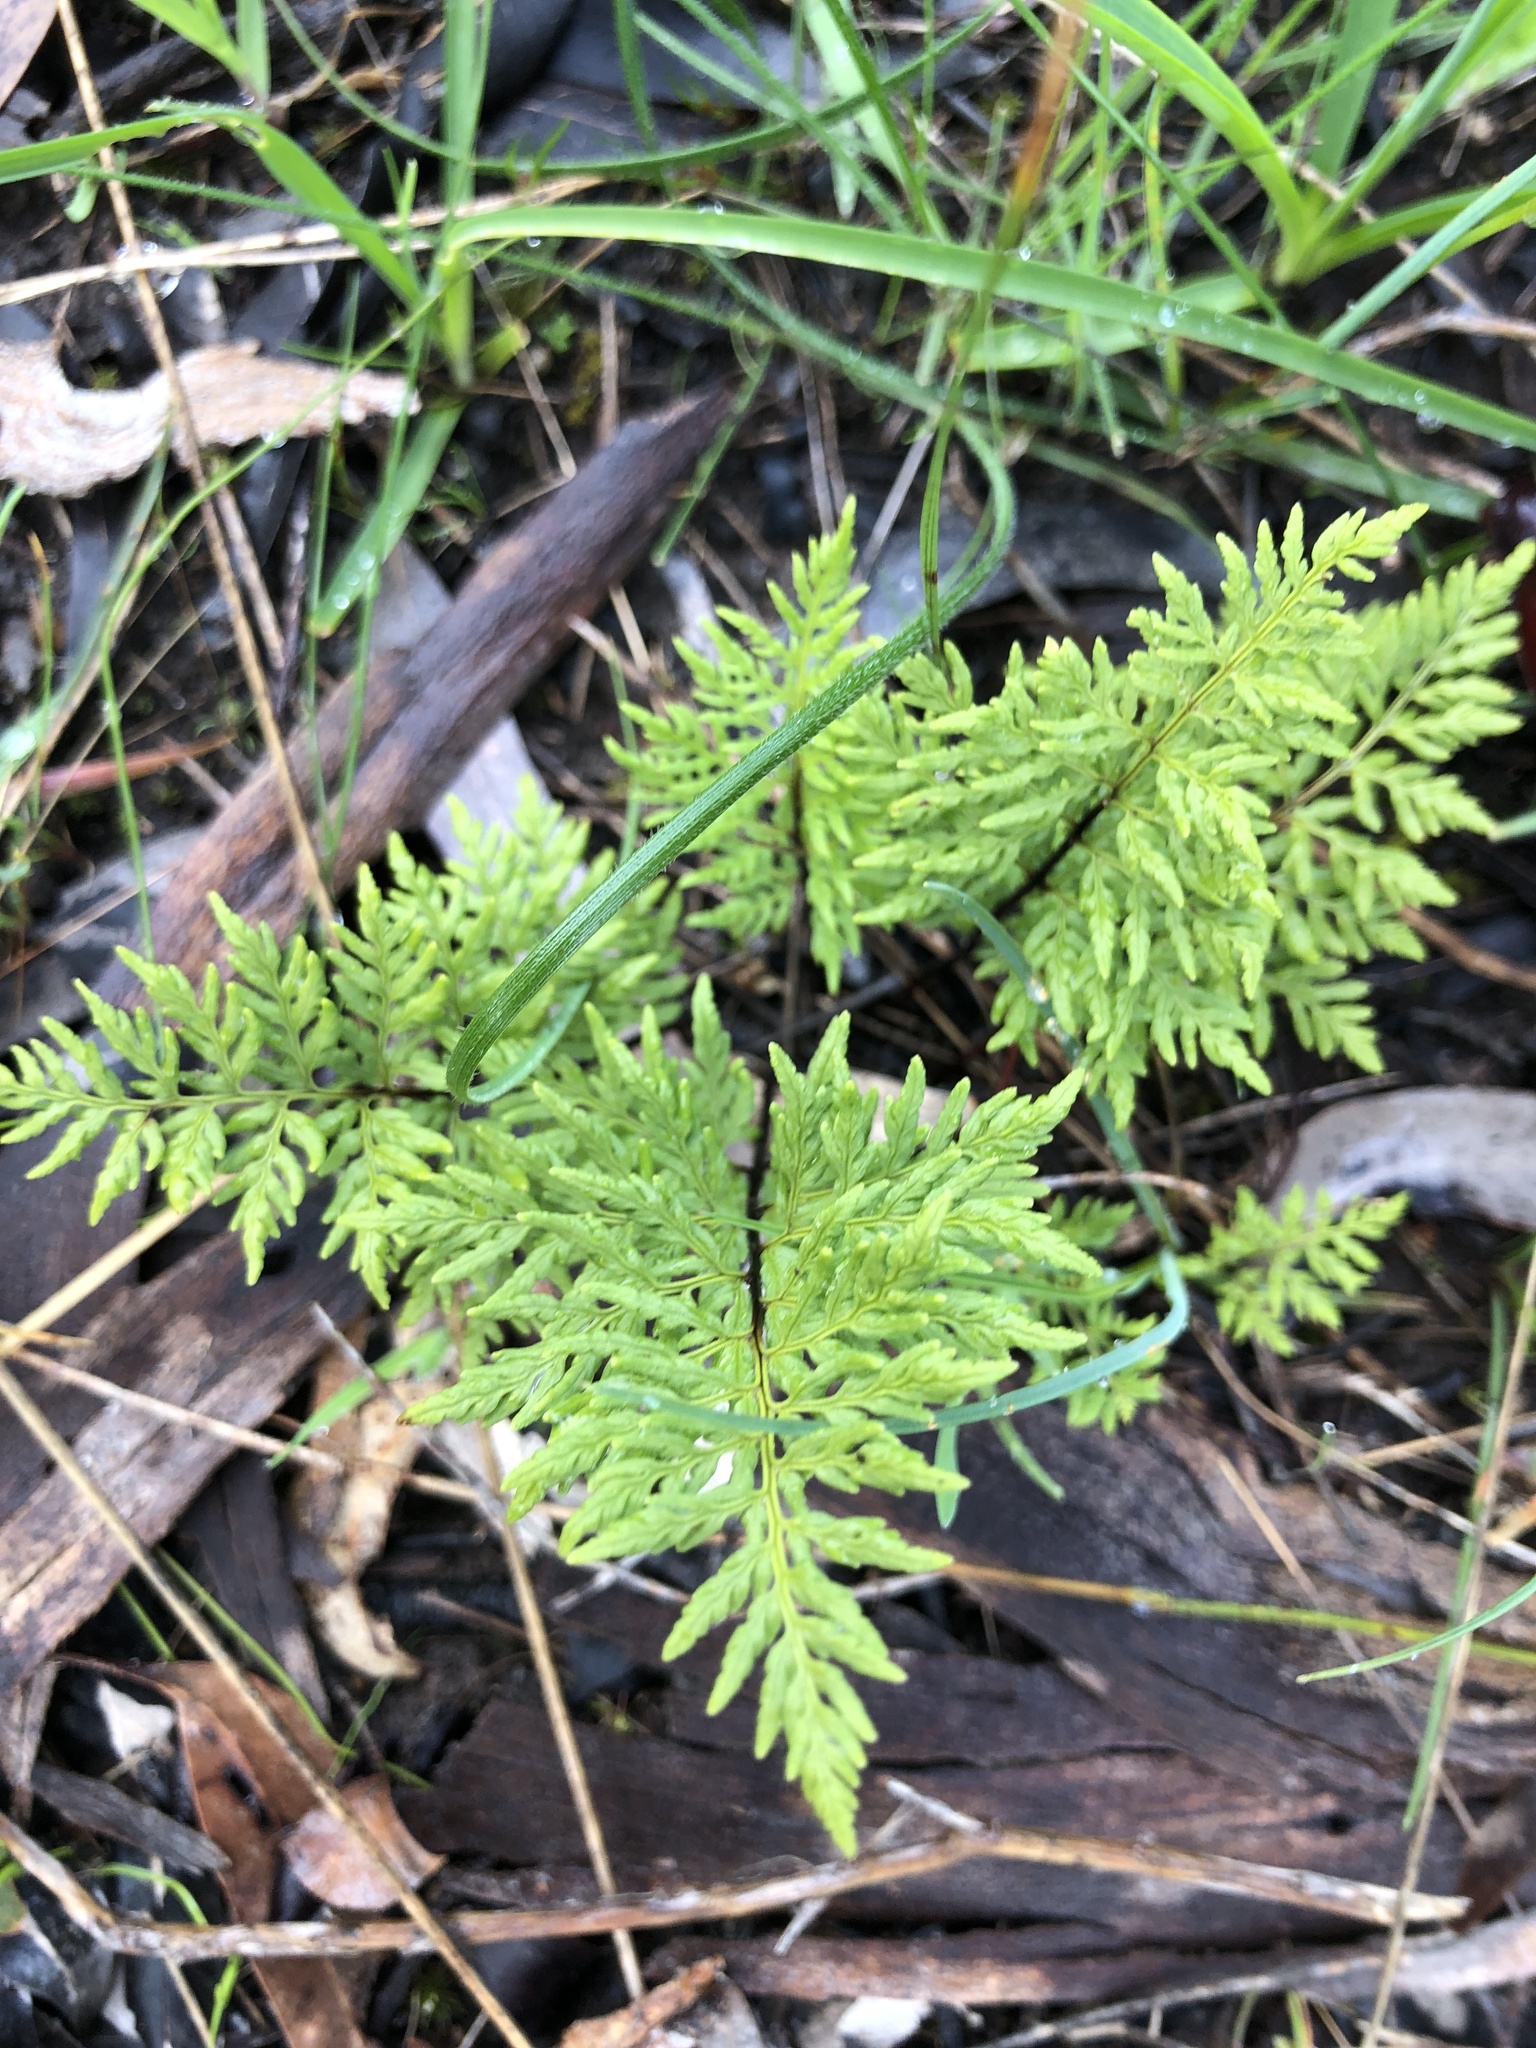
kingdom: Plantae
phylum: Tracheophyta
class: Polypodiopsida
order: Polypodiales
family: Pteridaceae
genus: Cheilanthes
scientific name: Cheilanthes austrotenuifolia
